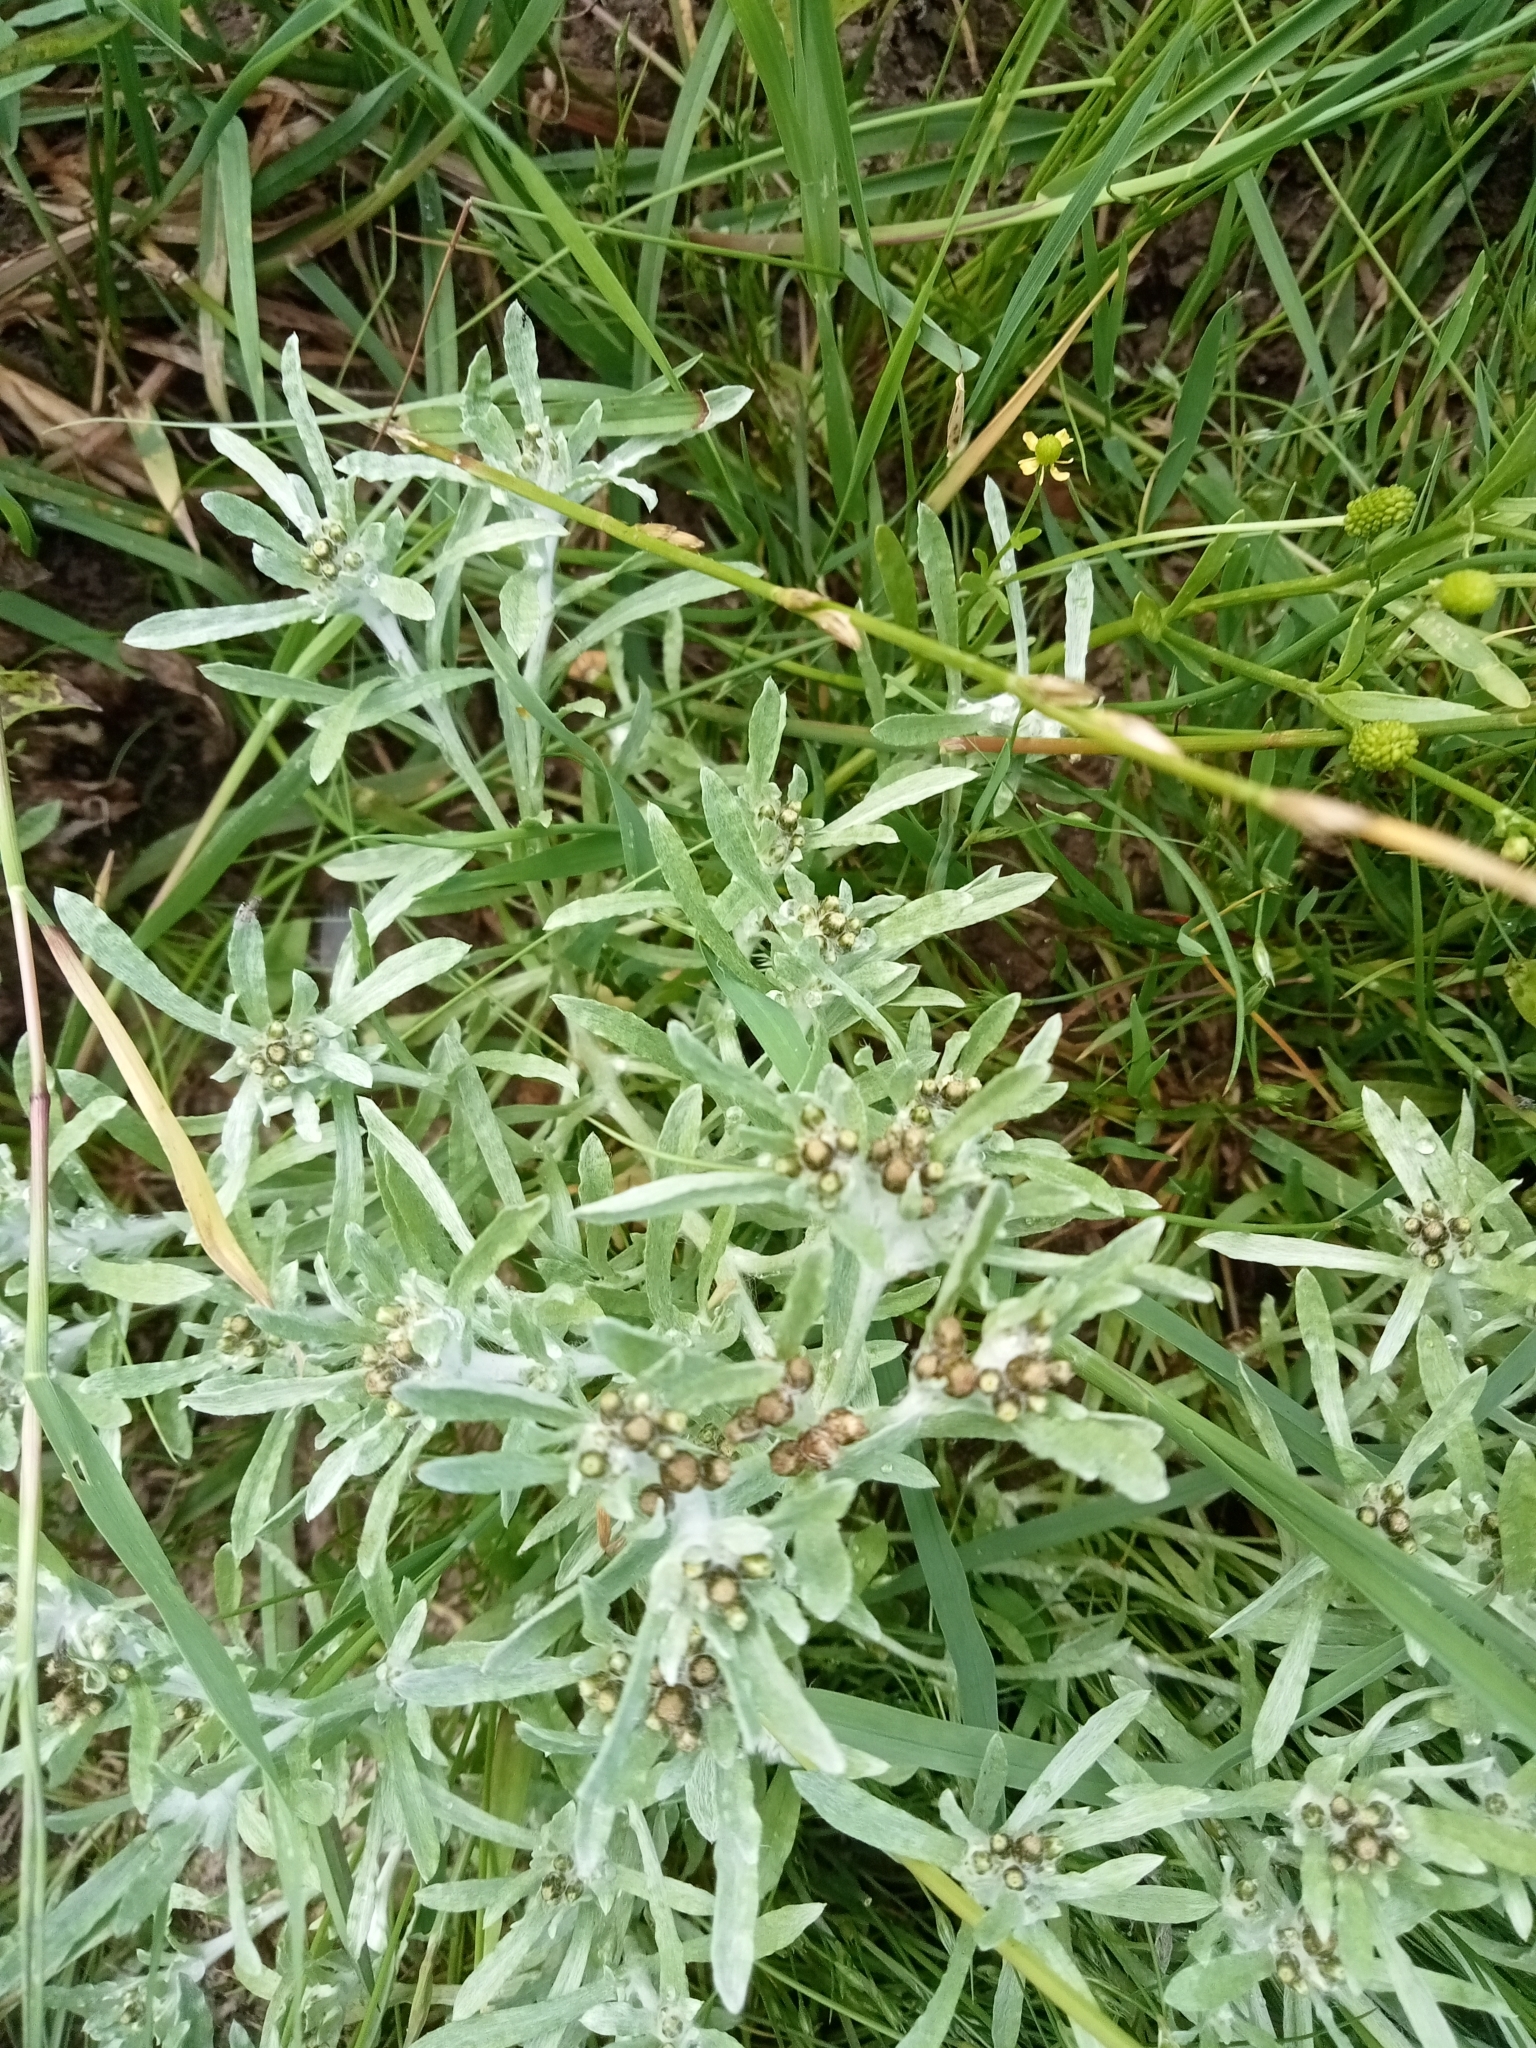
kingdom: Plantae
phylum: Tracheophyta
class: Magnoliopsida
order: Asterales
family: Asteraceae
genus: Gnaphalium
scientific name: Gnaphalium uliginosum
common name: Marsh cudweed
